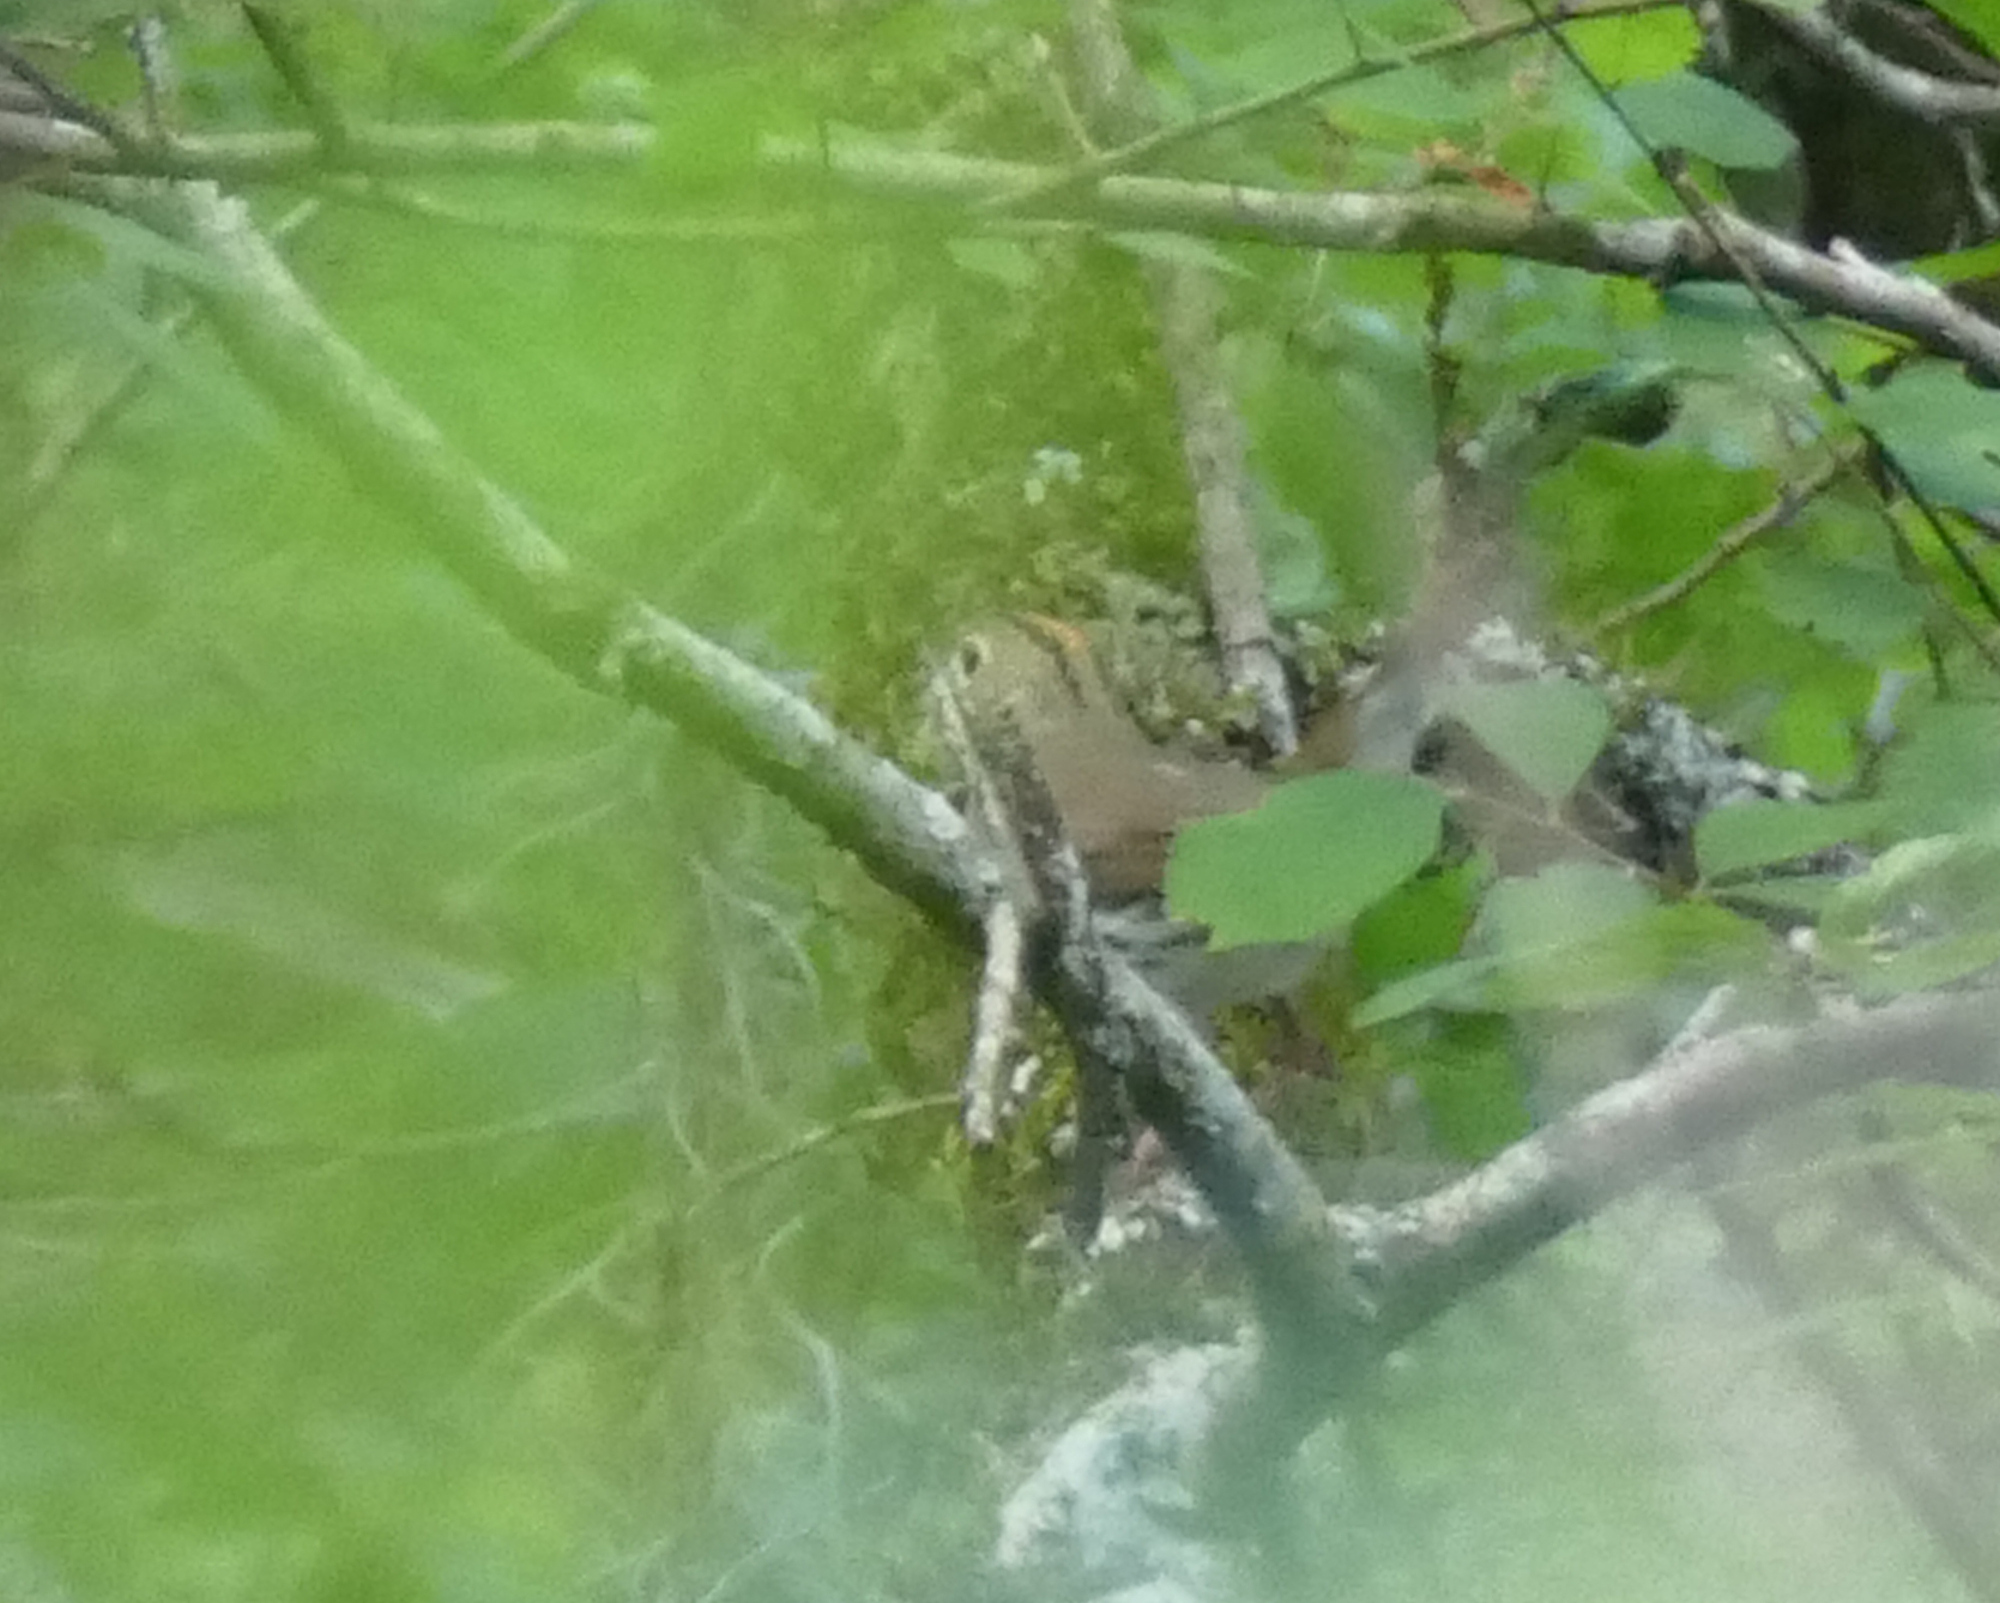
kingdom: Animalia
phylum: Chordata
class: Aves
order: Passeriformes
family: Parulidae
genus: Seiurus
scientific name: Seiurus aurocapilla
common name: Ovenbird
